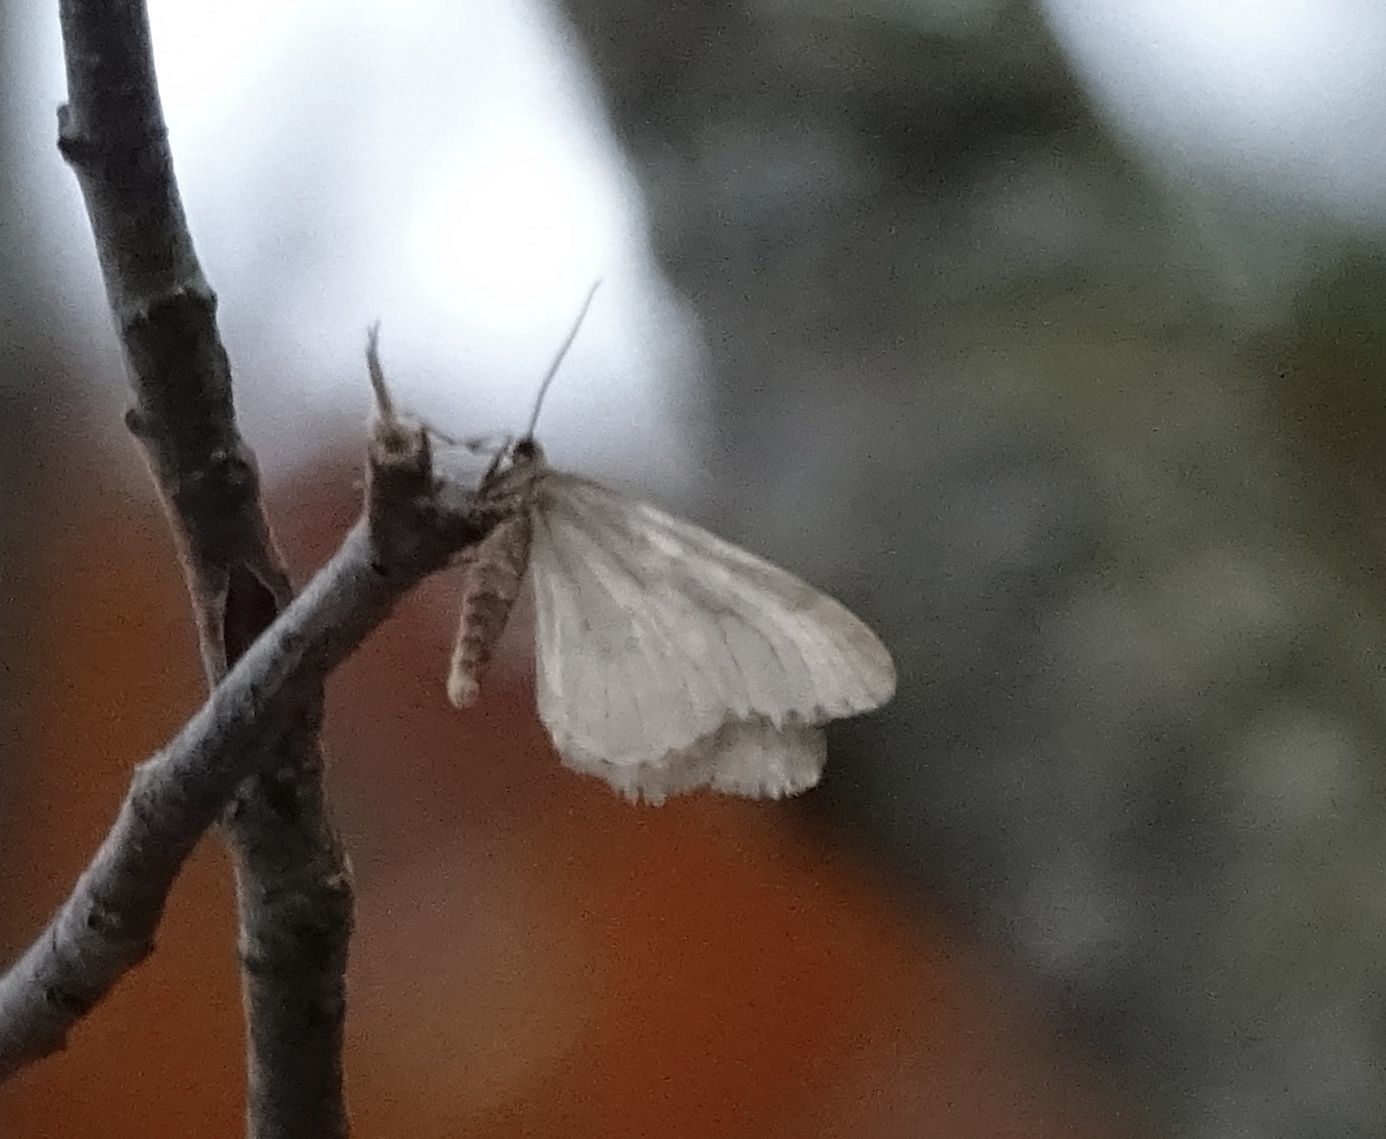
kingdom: Animalia
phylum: Arthropoda
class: Insecta
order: Lepidoptera
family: Geometridae
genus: Operophtera
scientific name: Operophtera bruceata
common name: Bruce spanworm
